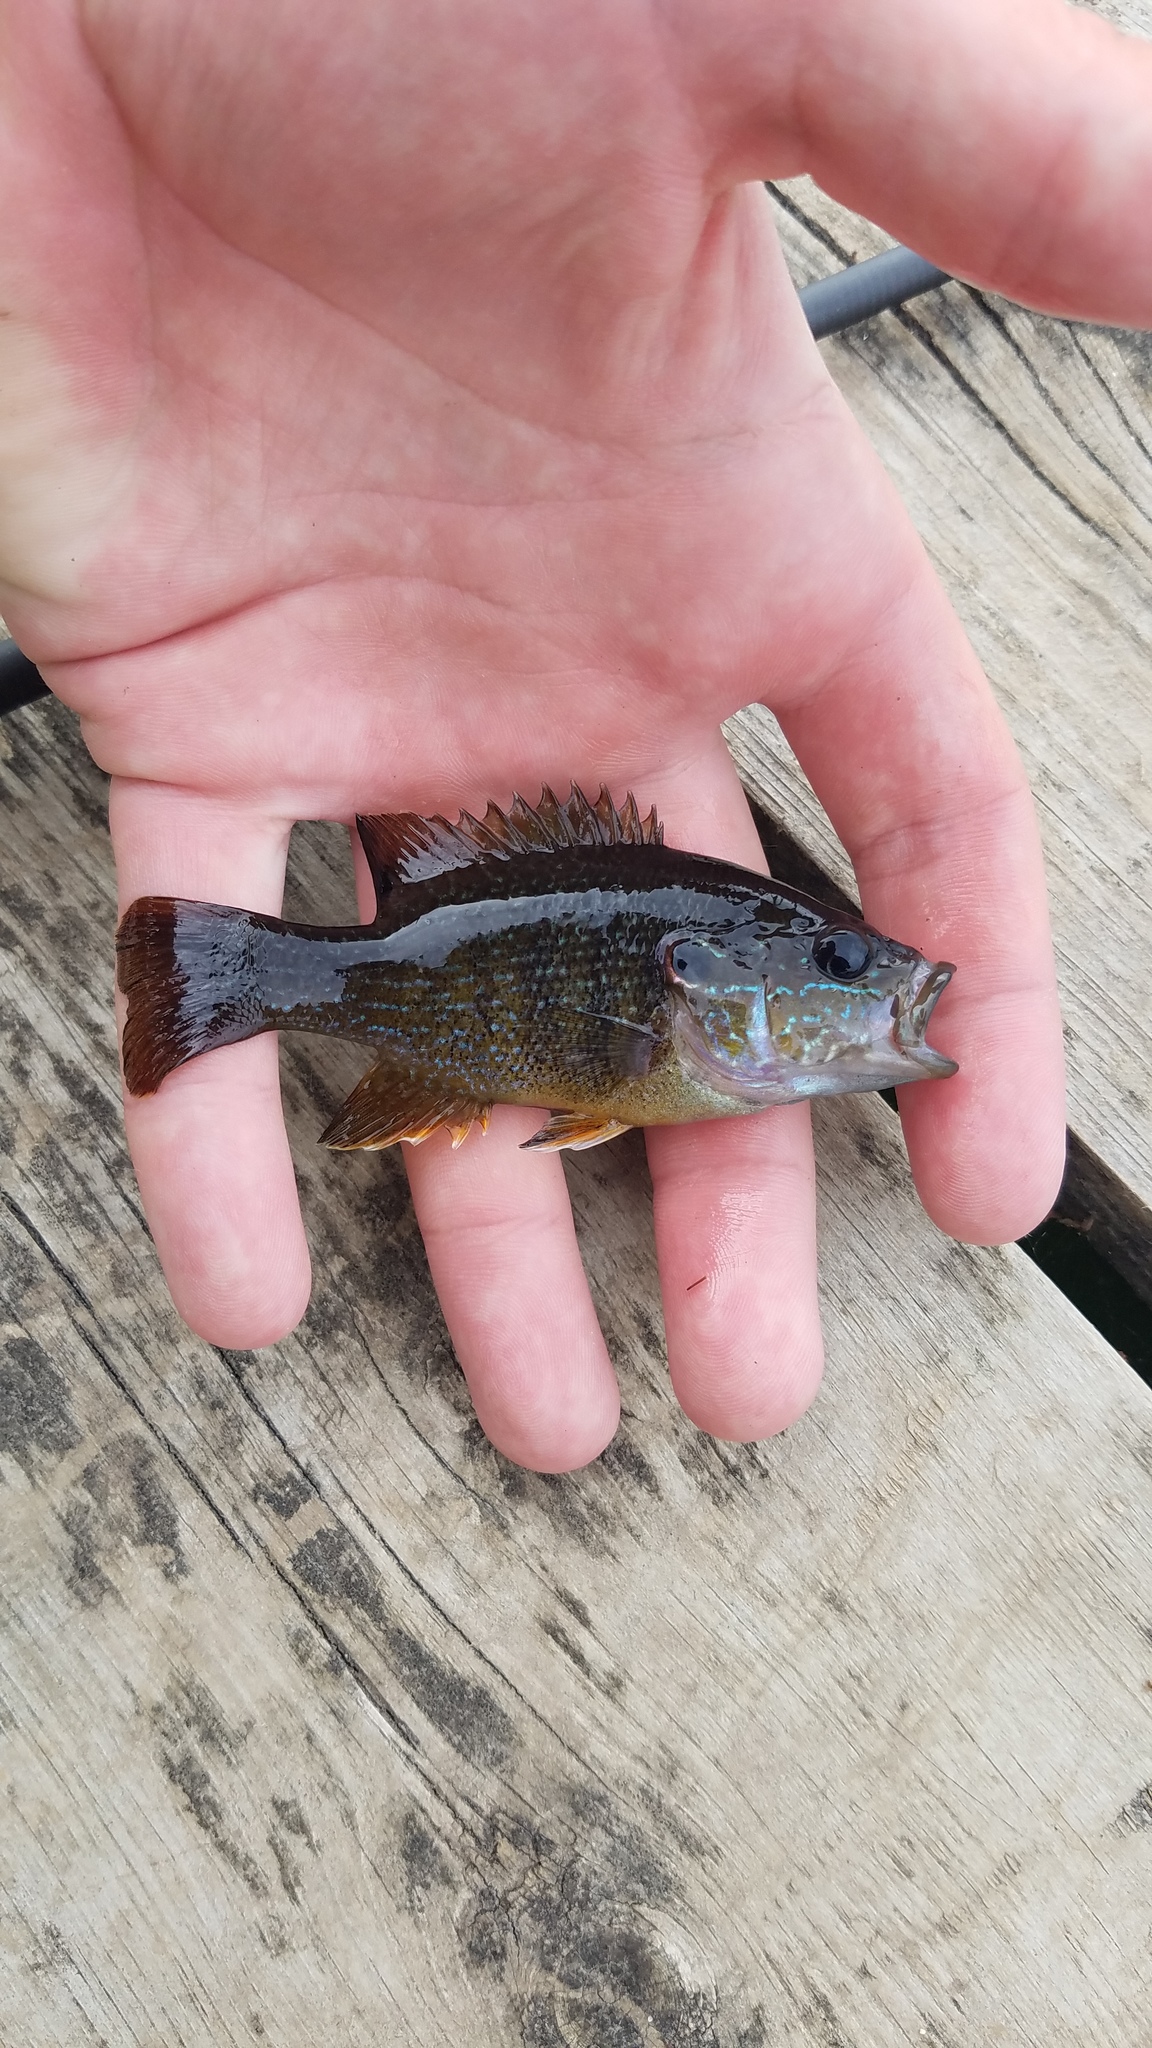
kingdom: Animalia
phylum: Chordata
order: Perciformes
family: Centrarchidae
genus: Lepomis
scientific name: Lepomis cyanellus
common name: Green sunfish
